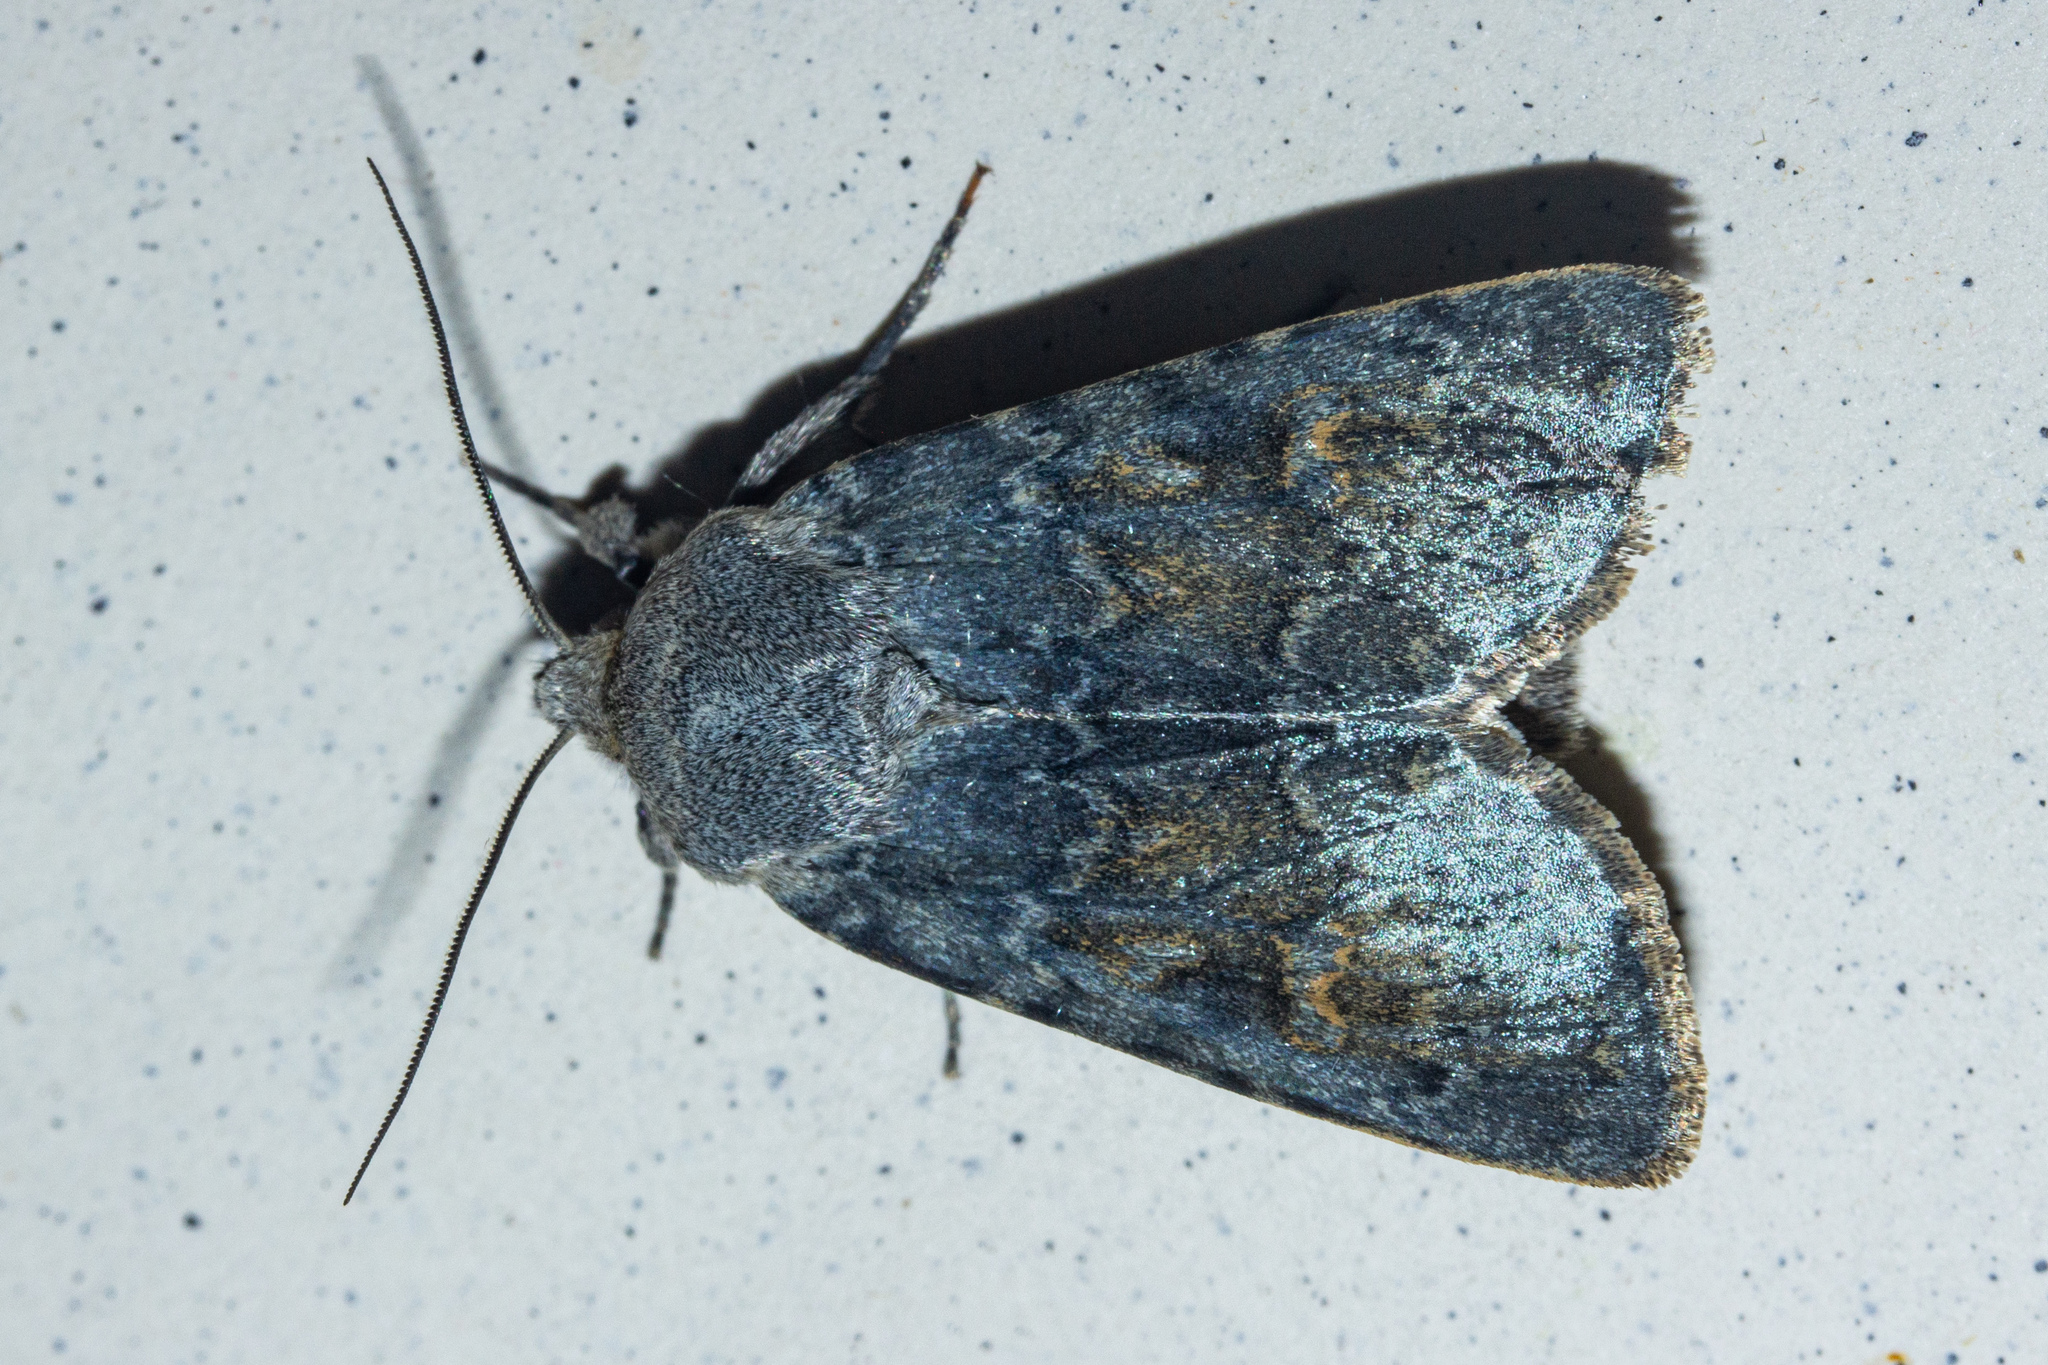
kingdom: Animalia
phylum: Arthropoda
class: Insecta
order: Lepidoptera
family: Noctuidae
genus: Physetica
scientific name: Physetica caerulea
